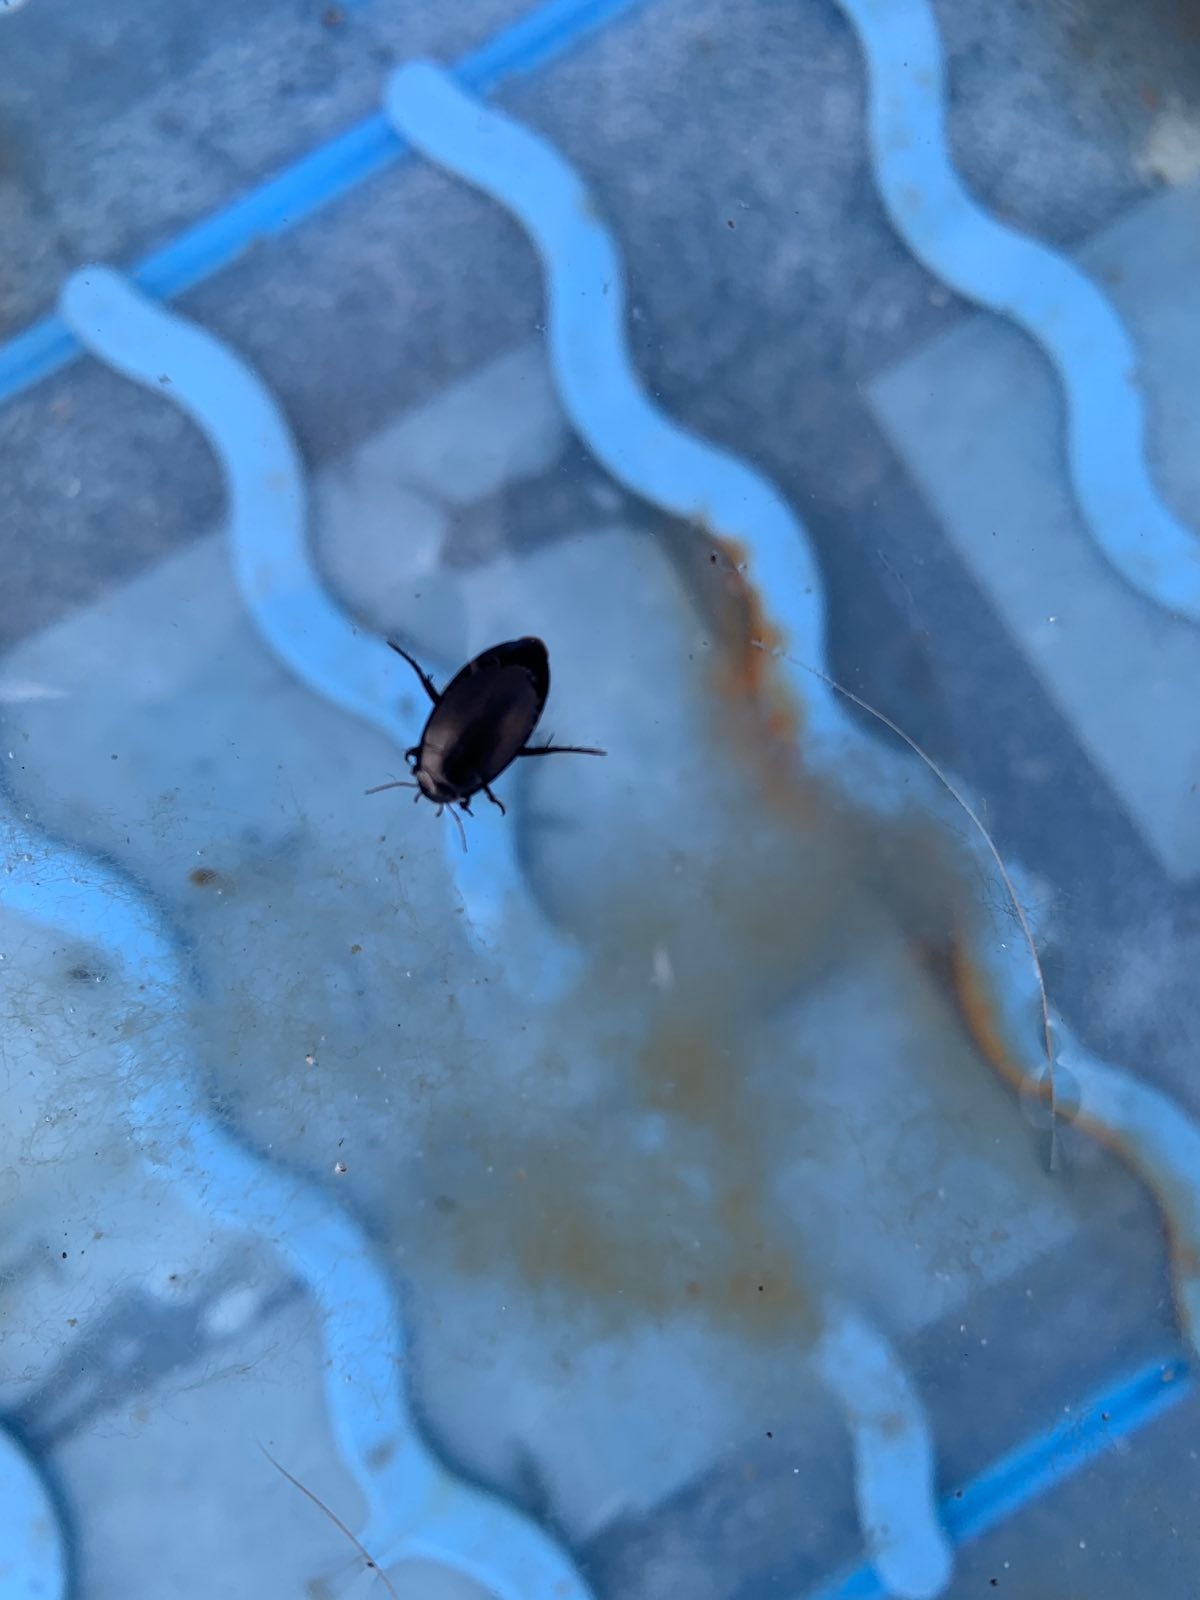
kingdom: Animalia
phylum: Arthropoda
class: Insecta
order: Coleoptera
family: Dytiscidae
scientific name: Dytiscidae
